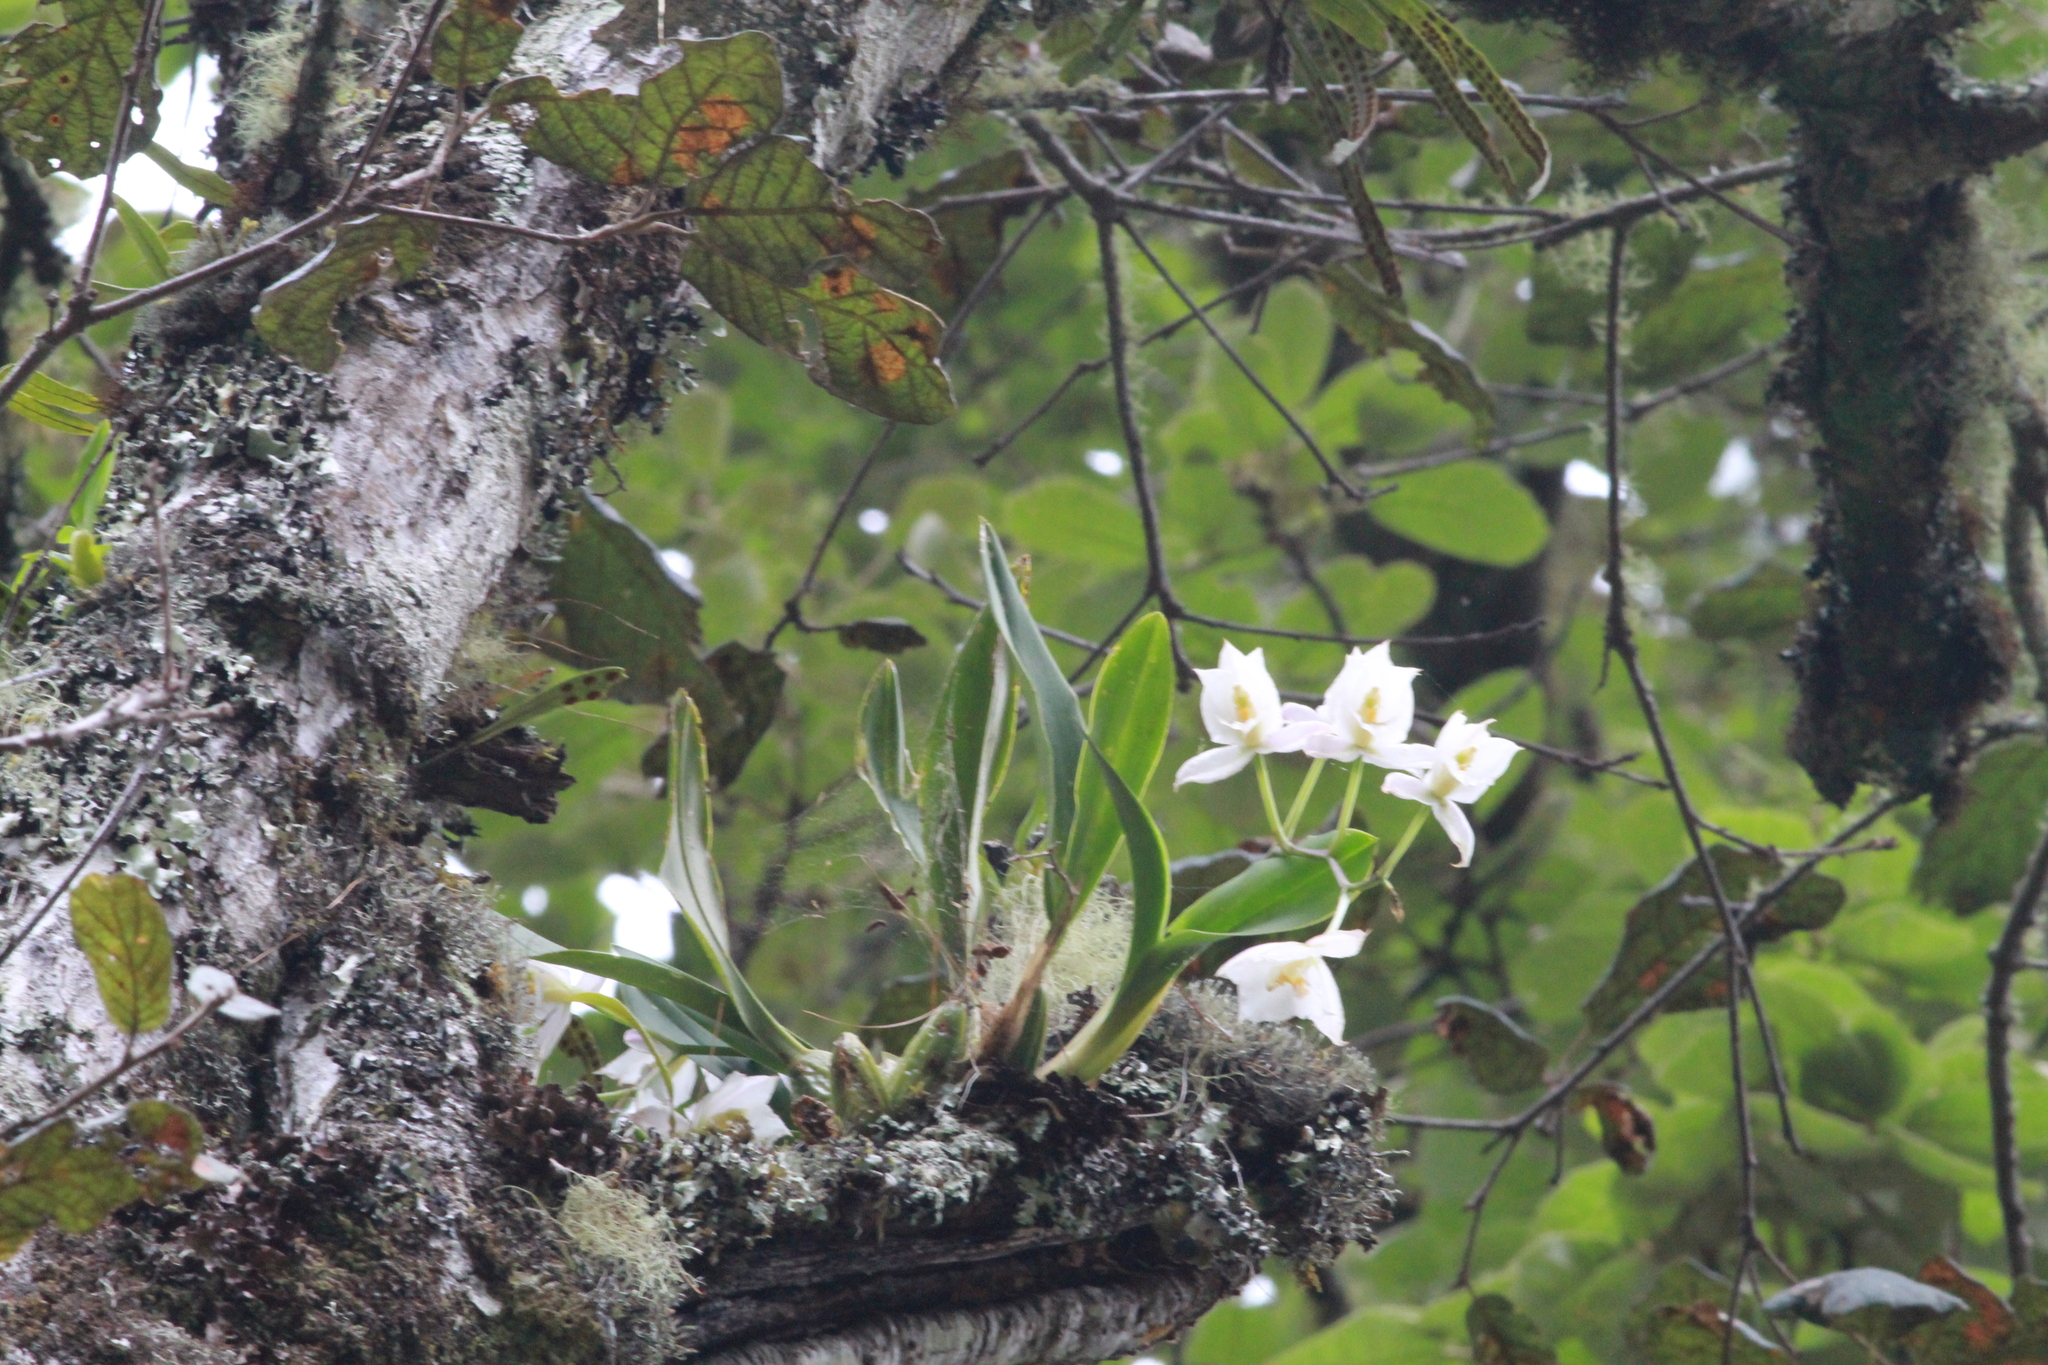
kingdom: Plantae
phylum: Tracheophyta
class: Liliopsida
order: Asparagales
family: Orchidaceae
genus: Rhynchostele
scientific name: Rhynchostele candidula
